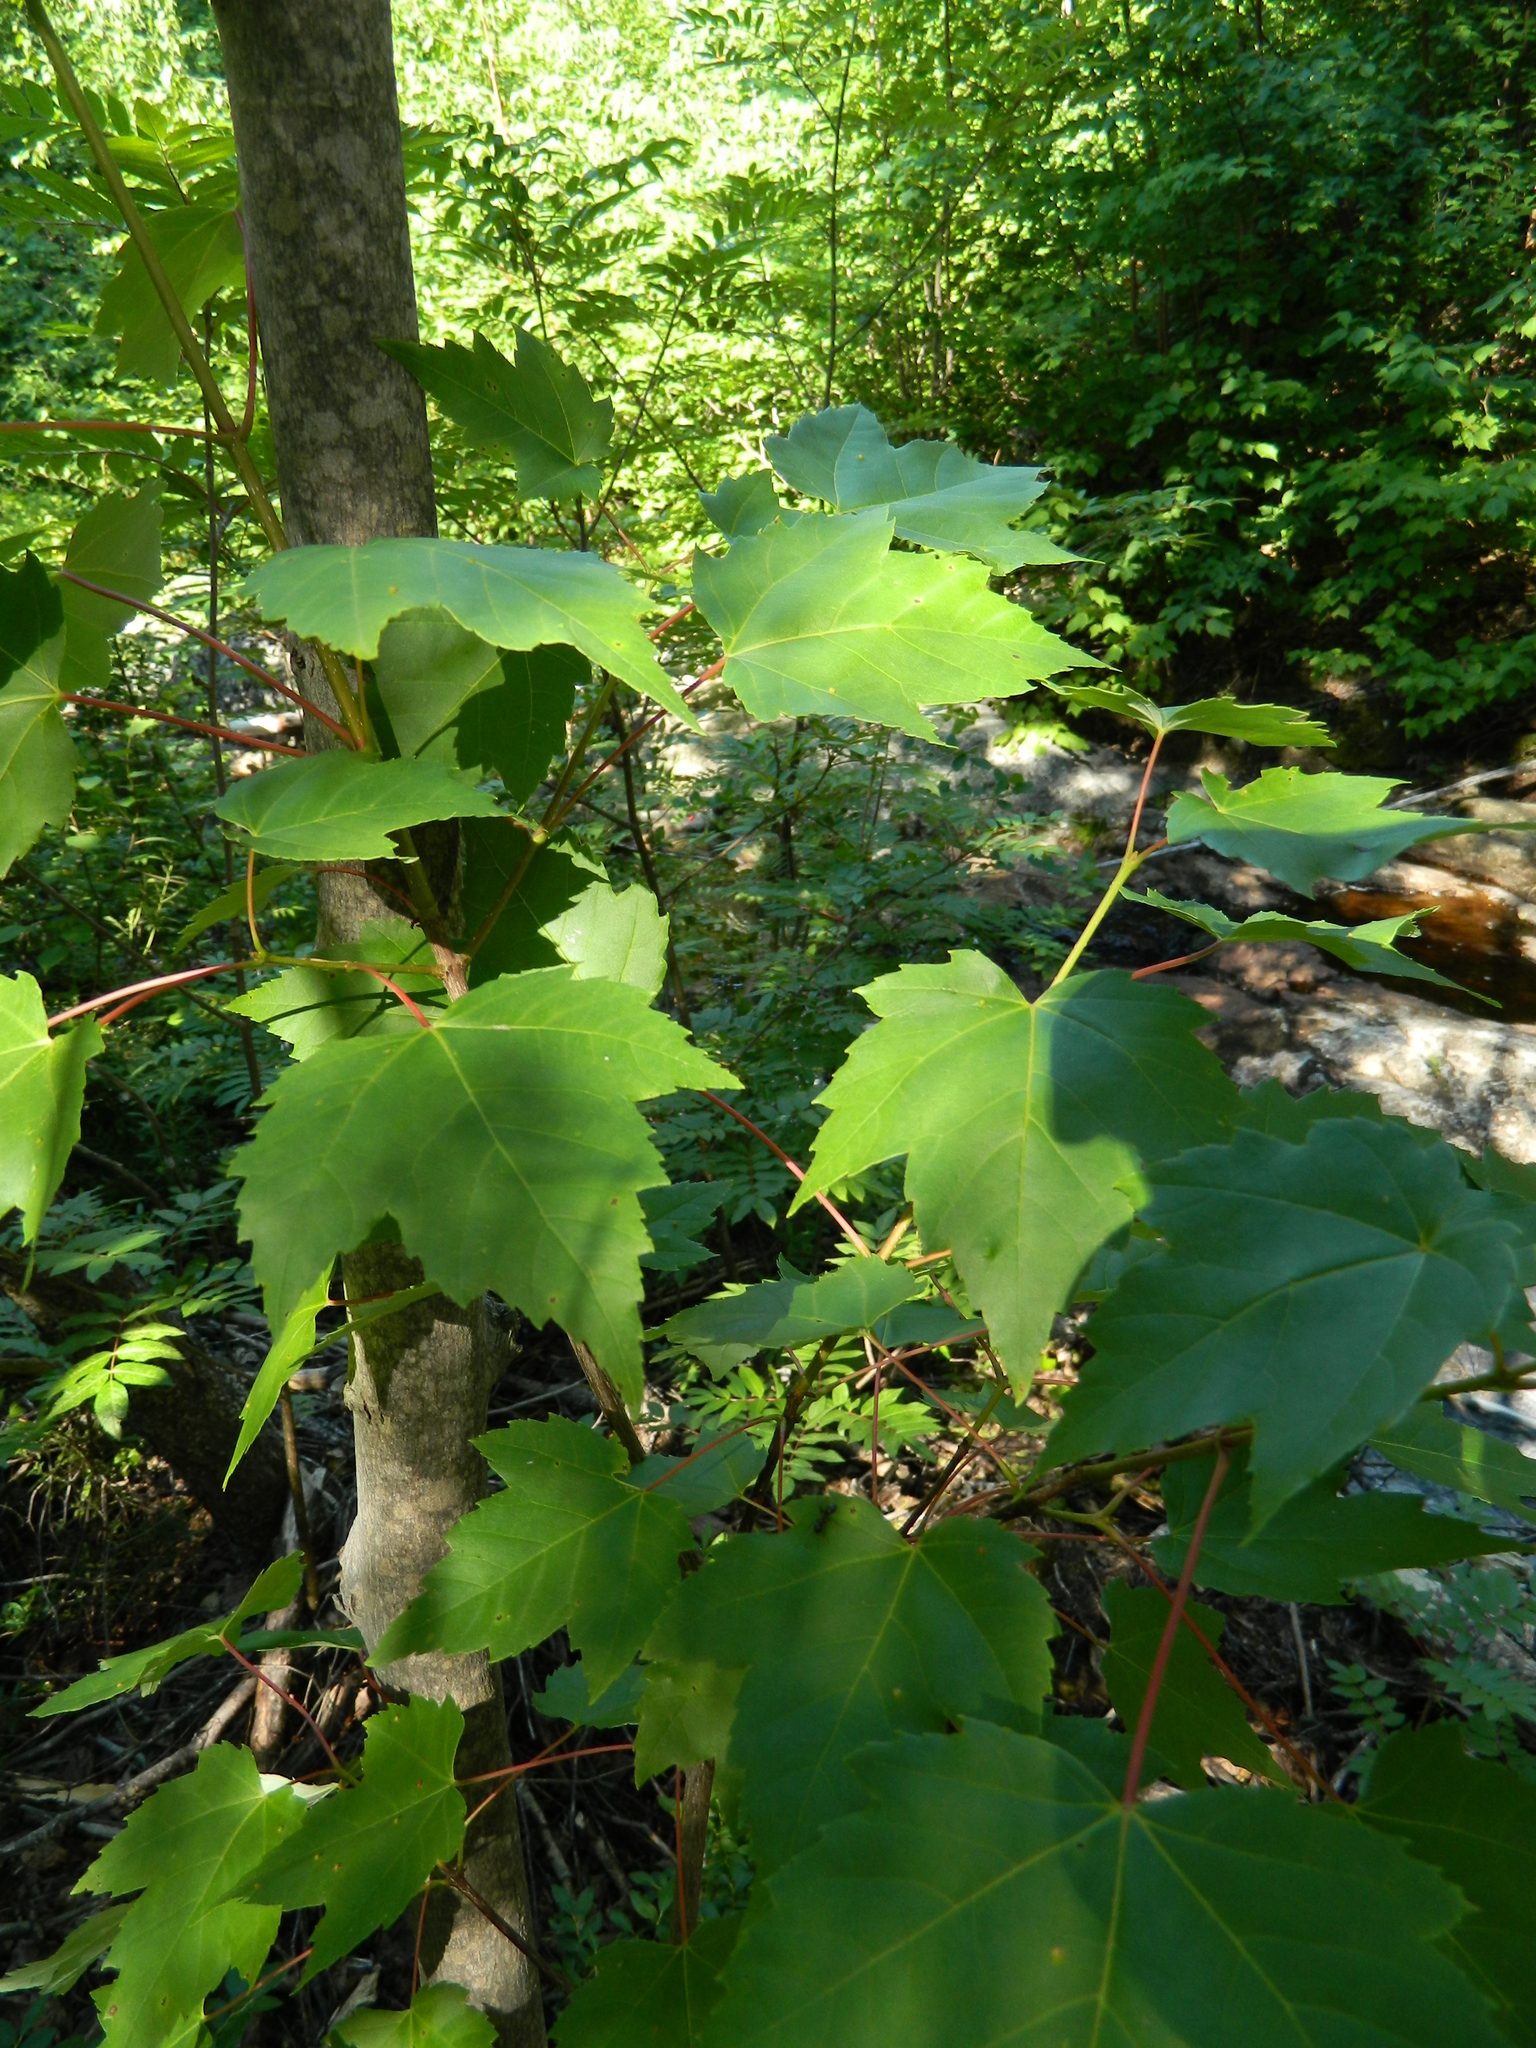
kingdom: Plantae
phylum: Tracheophyta
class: Magnoliopsida
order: Sapindales
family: Sapindaceae
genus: Acer
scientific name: Acer rubrum
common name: Red maple
